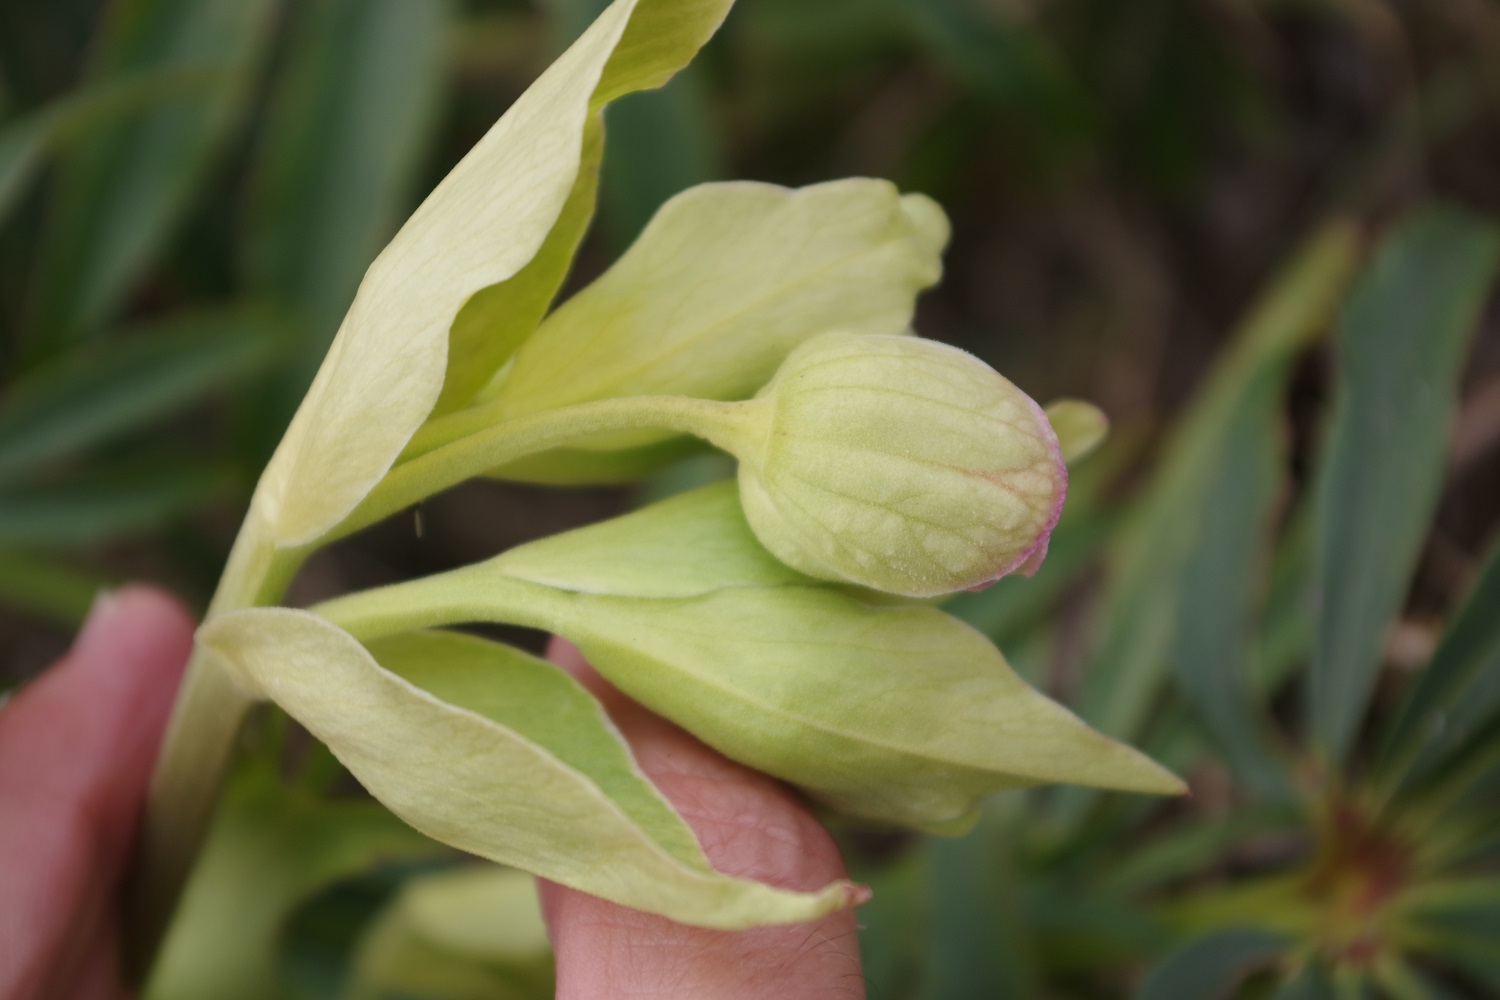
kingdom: Plantae
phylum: Tracheophyta
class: Magnoliopsida
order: Ranunculales
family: Ranunculaceae
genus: Helleborus
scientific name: Helleborus foetidus
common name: Stinking hellebore
